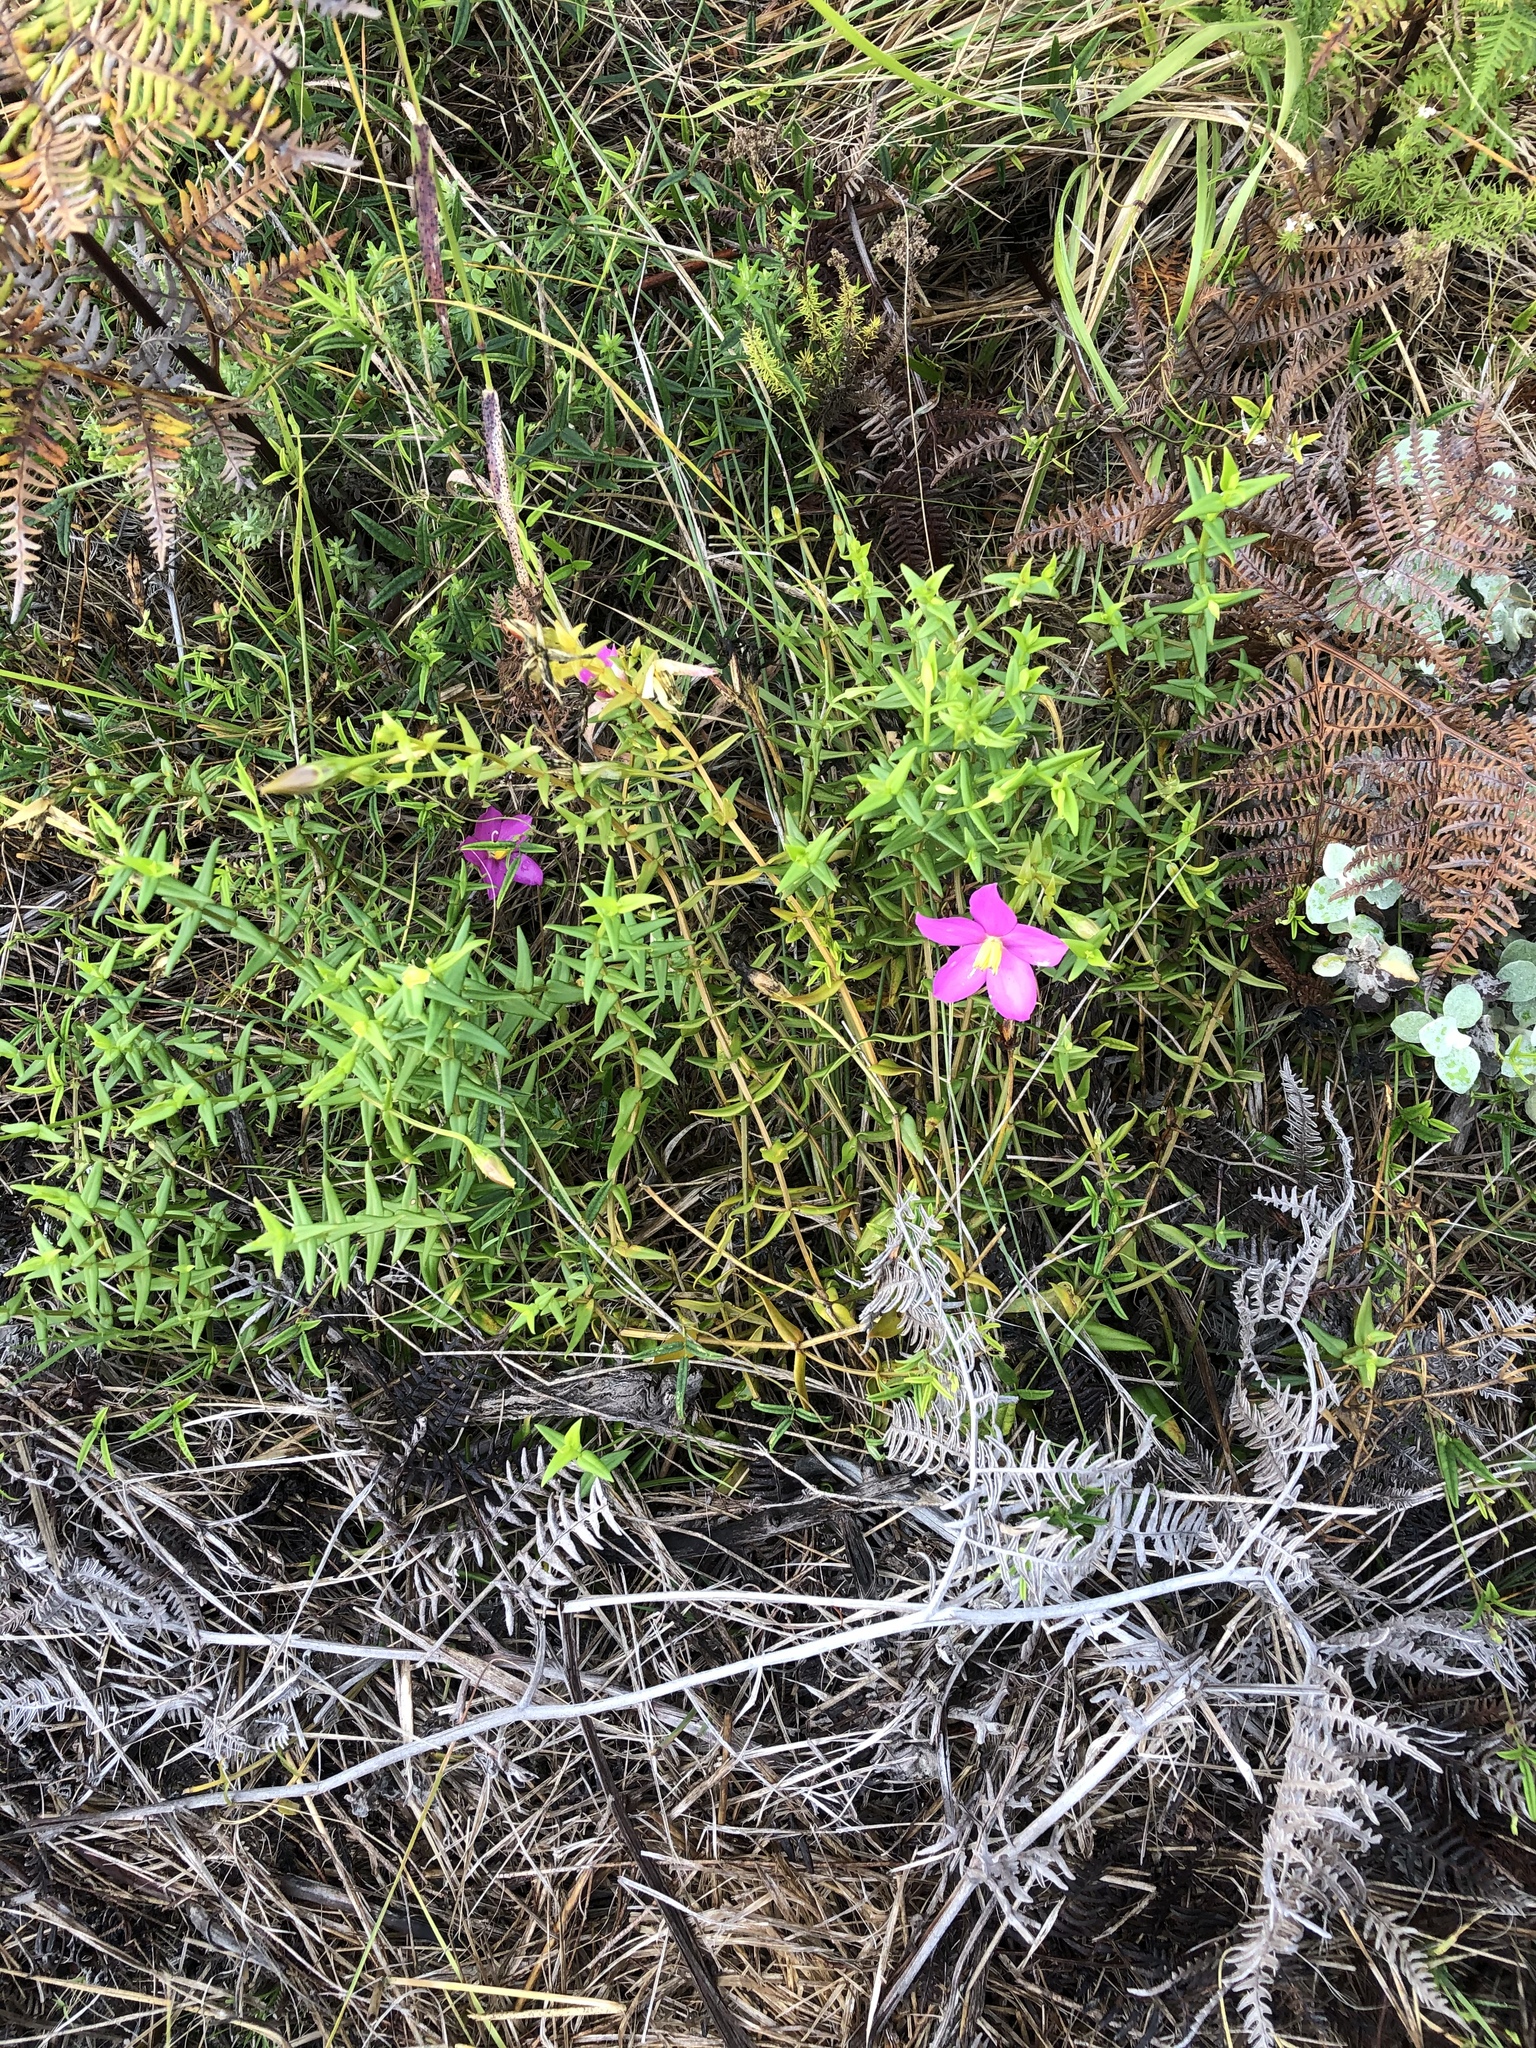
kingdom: Plantae
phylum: Tracheophyta
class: Magnoliopsida
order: Gentianales
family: Gentianaceae
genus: Chironia
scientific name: Chironia baccifera
